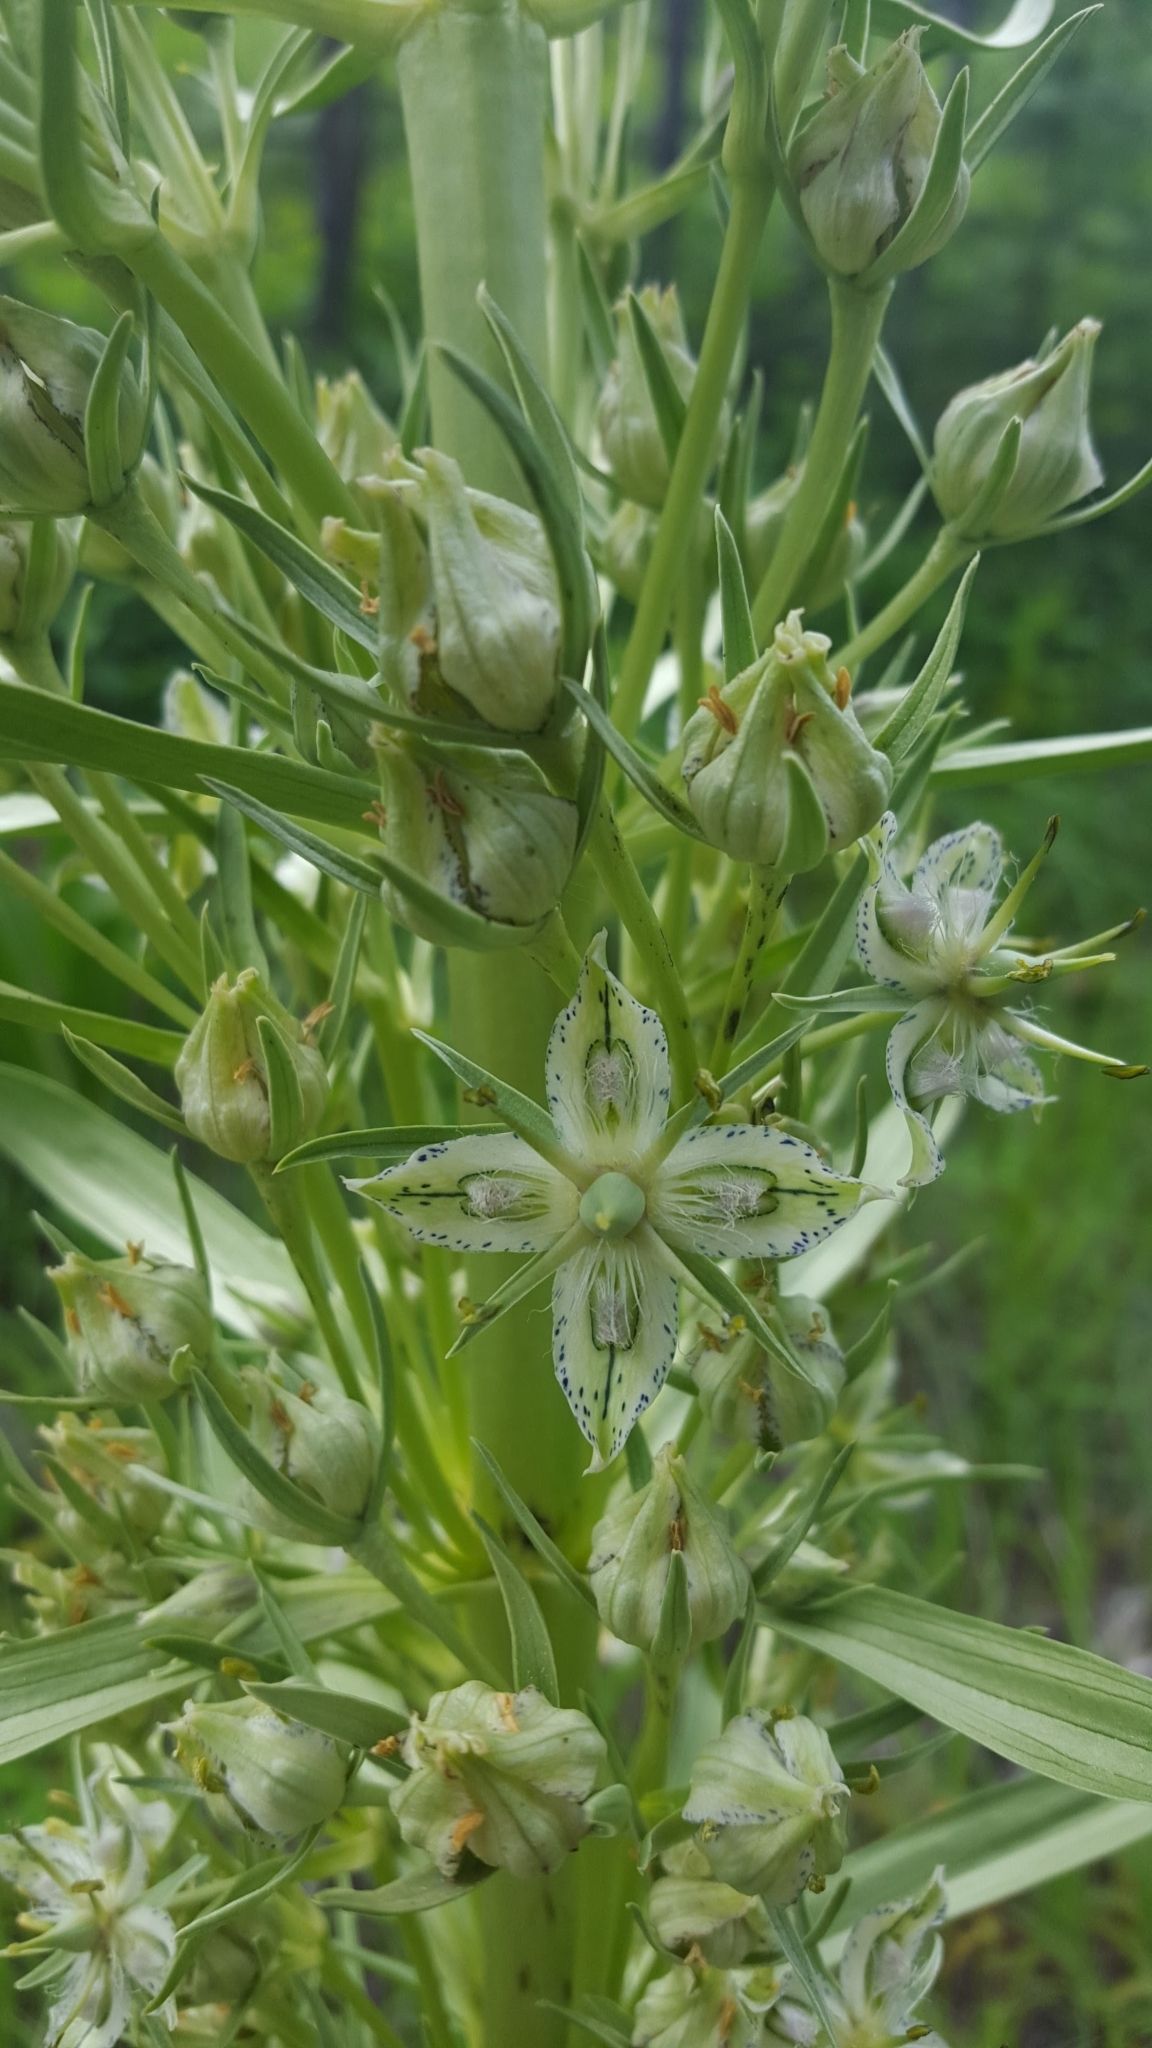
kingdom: Plantae
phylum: Tracheophyta
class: Magnoliopsida
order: Gentianales
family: Gentianaceae
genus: Frasera
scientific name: Frasera speciosa
